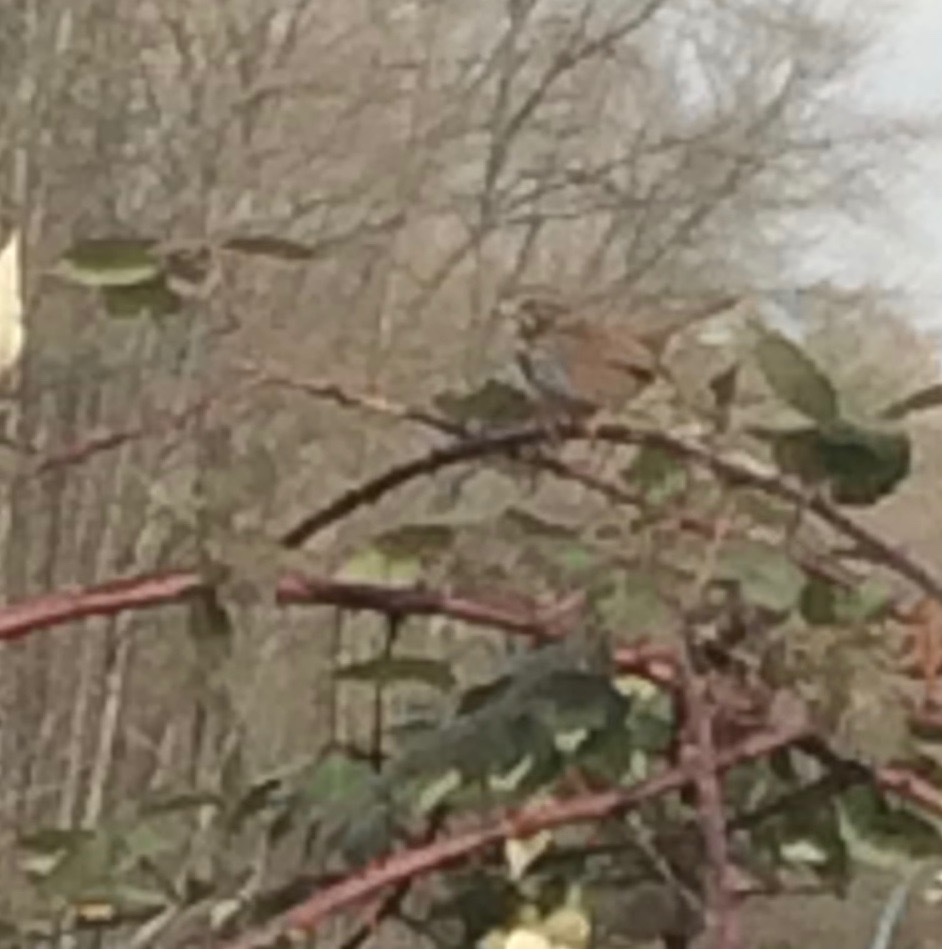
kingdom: Animalia
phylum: Chordata
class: Aves
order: Passeriformes
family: Passerellidae
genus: Melospiza
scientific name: Melospiza melodia
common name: Song sparrow
